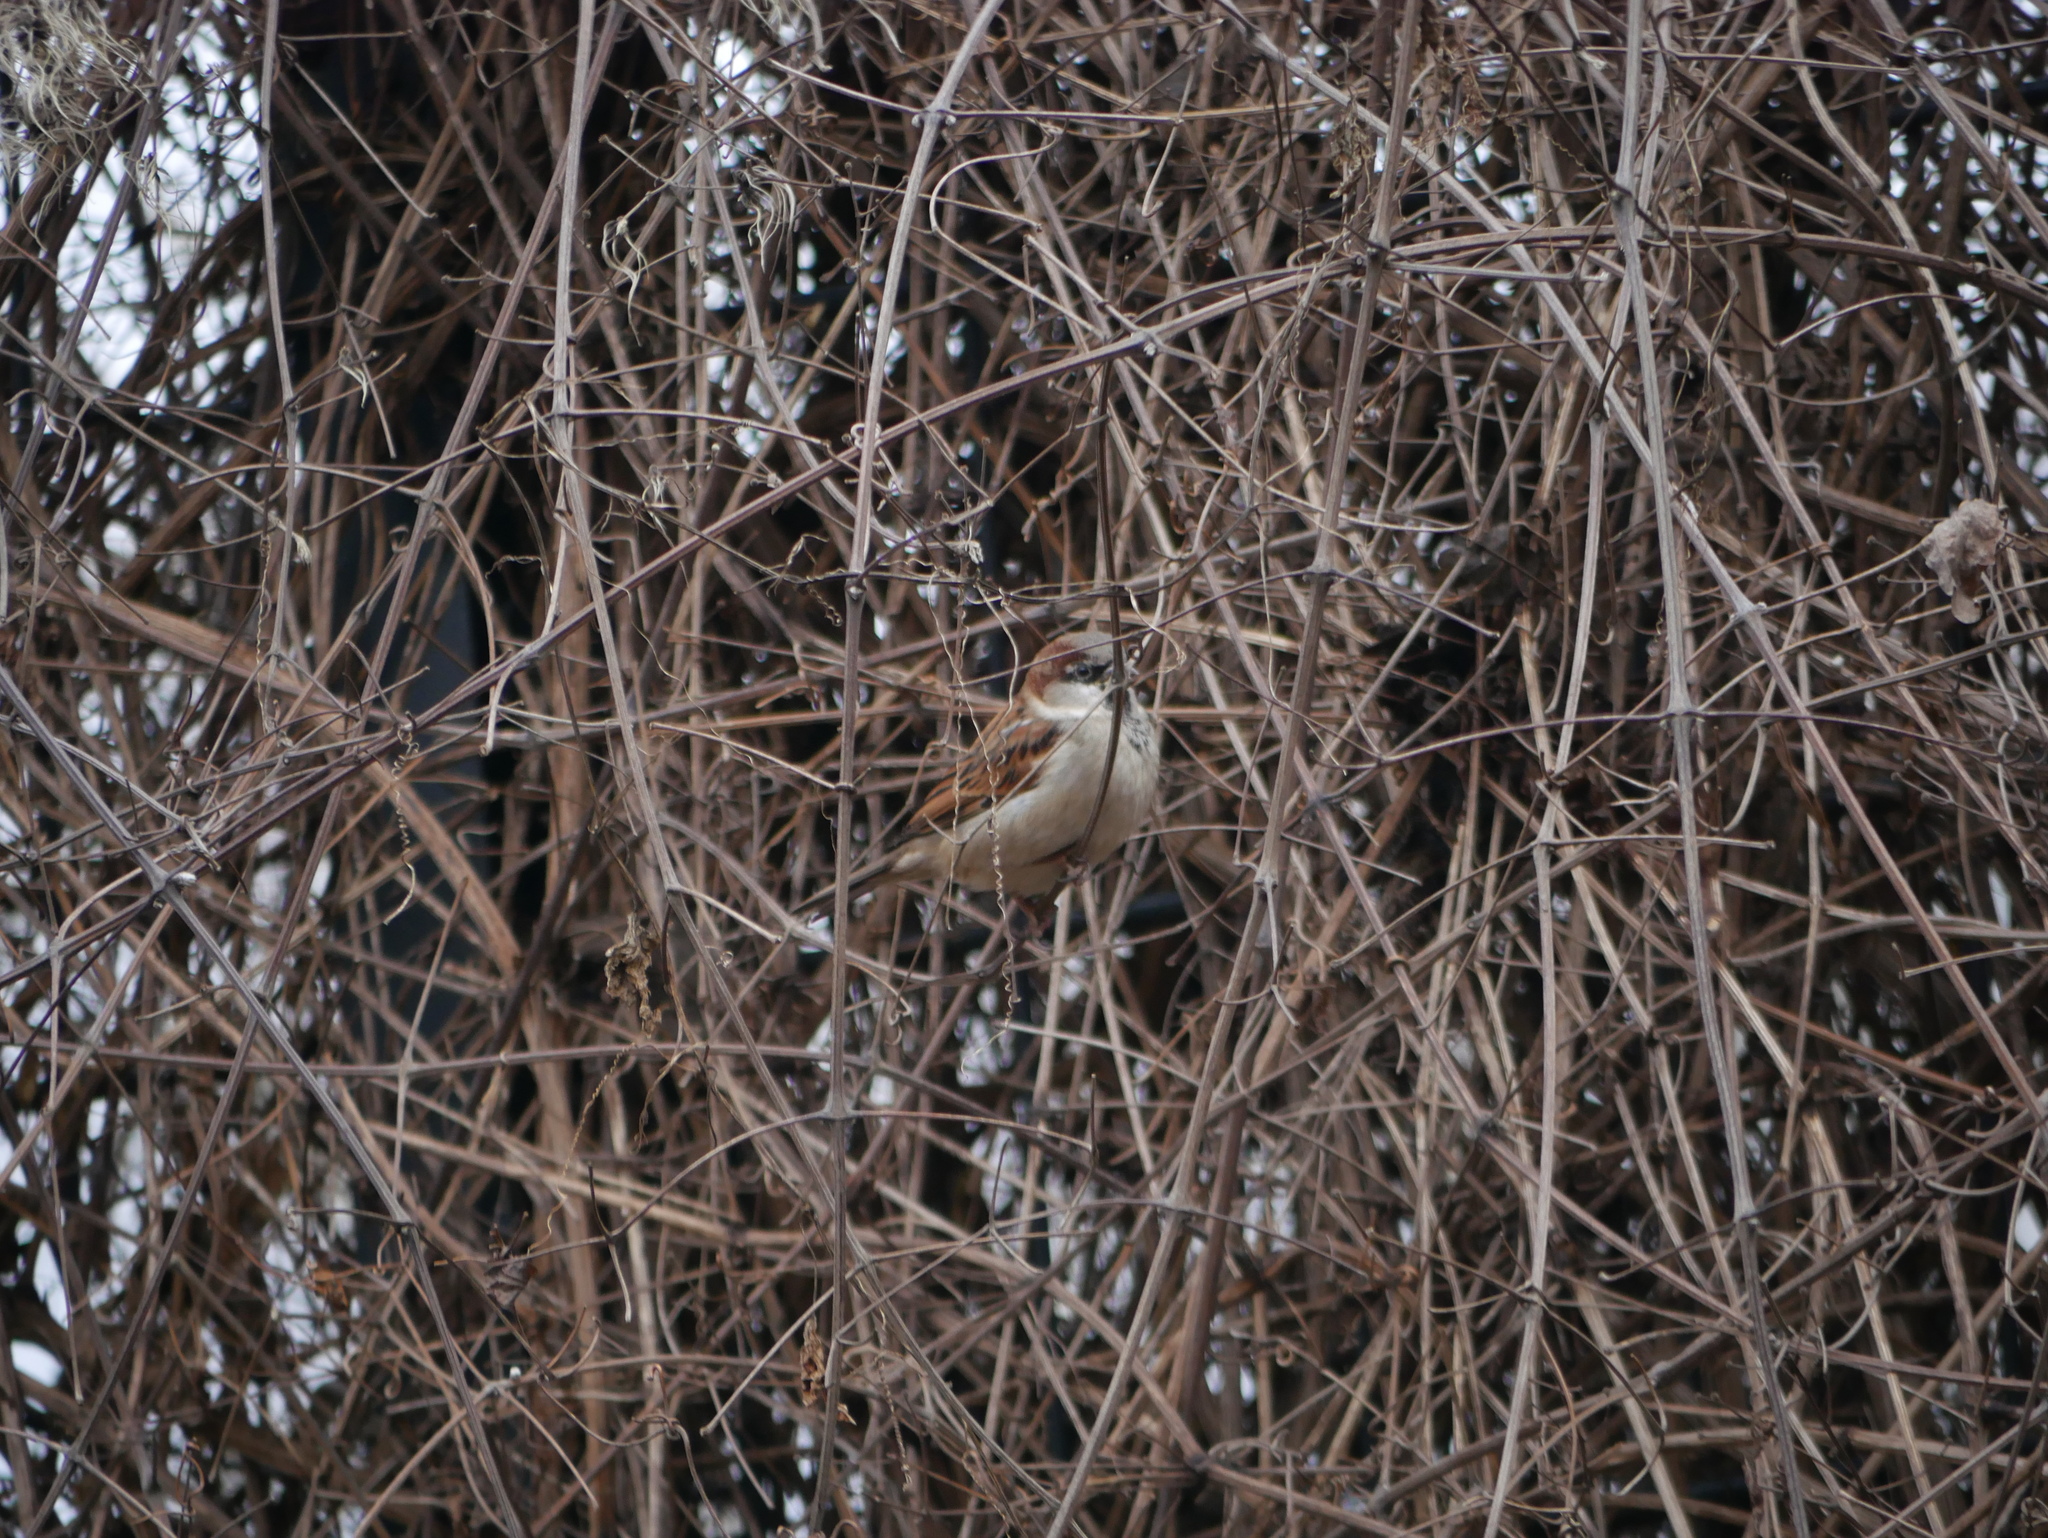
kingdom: Animalia
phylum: Chordata
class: Aves
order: Passeriformes
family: Passeridae
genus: Passer
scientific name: Passer domesticus
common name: House sparrow
